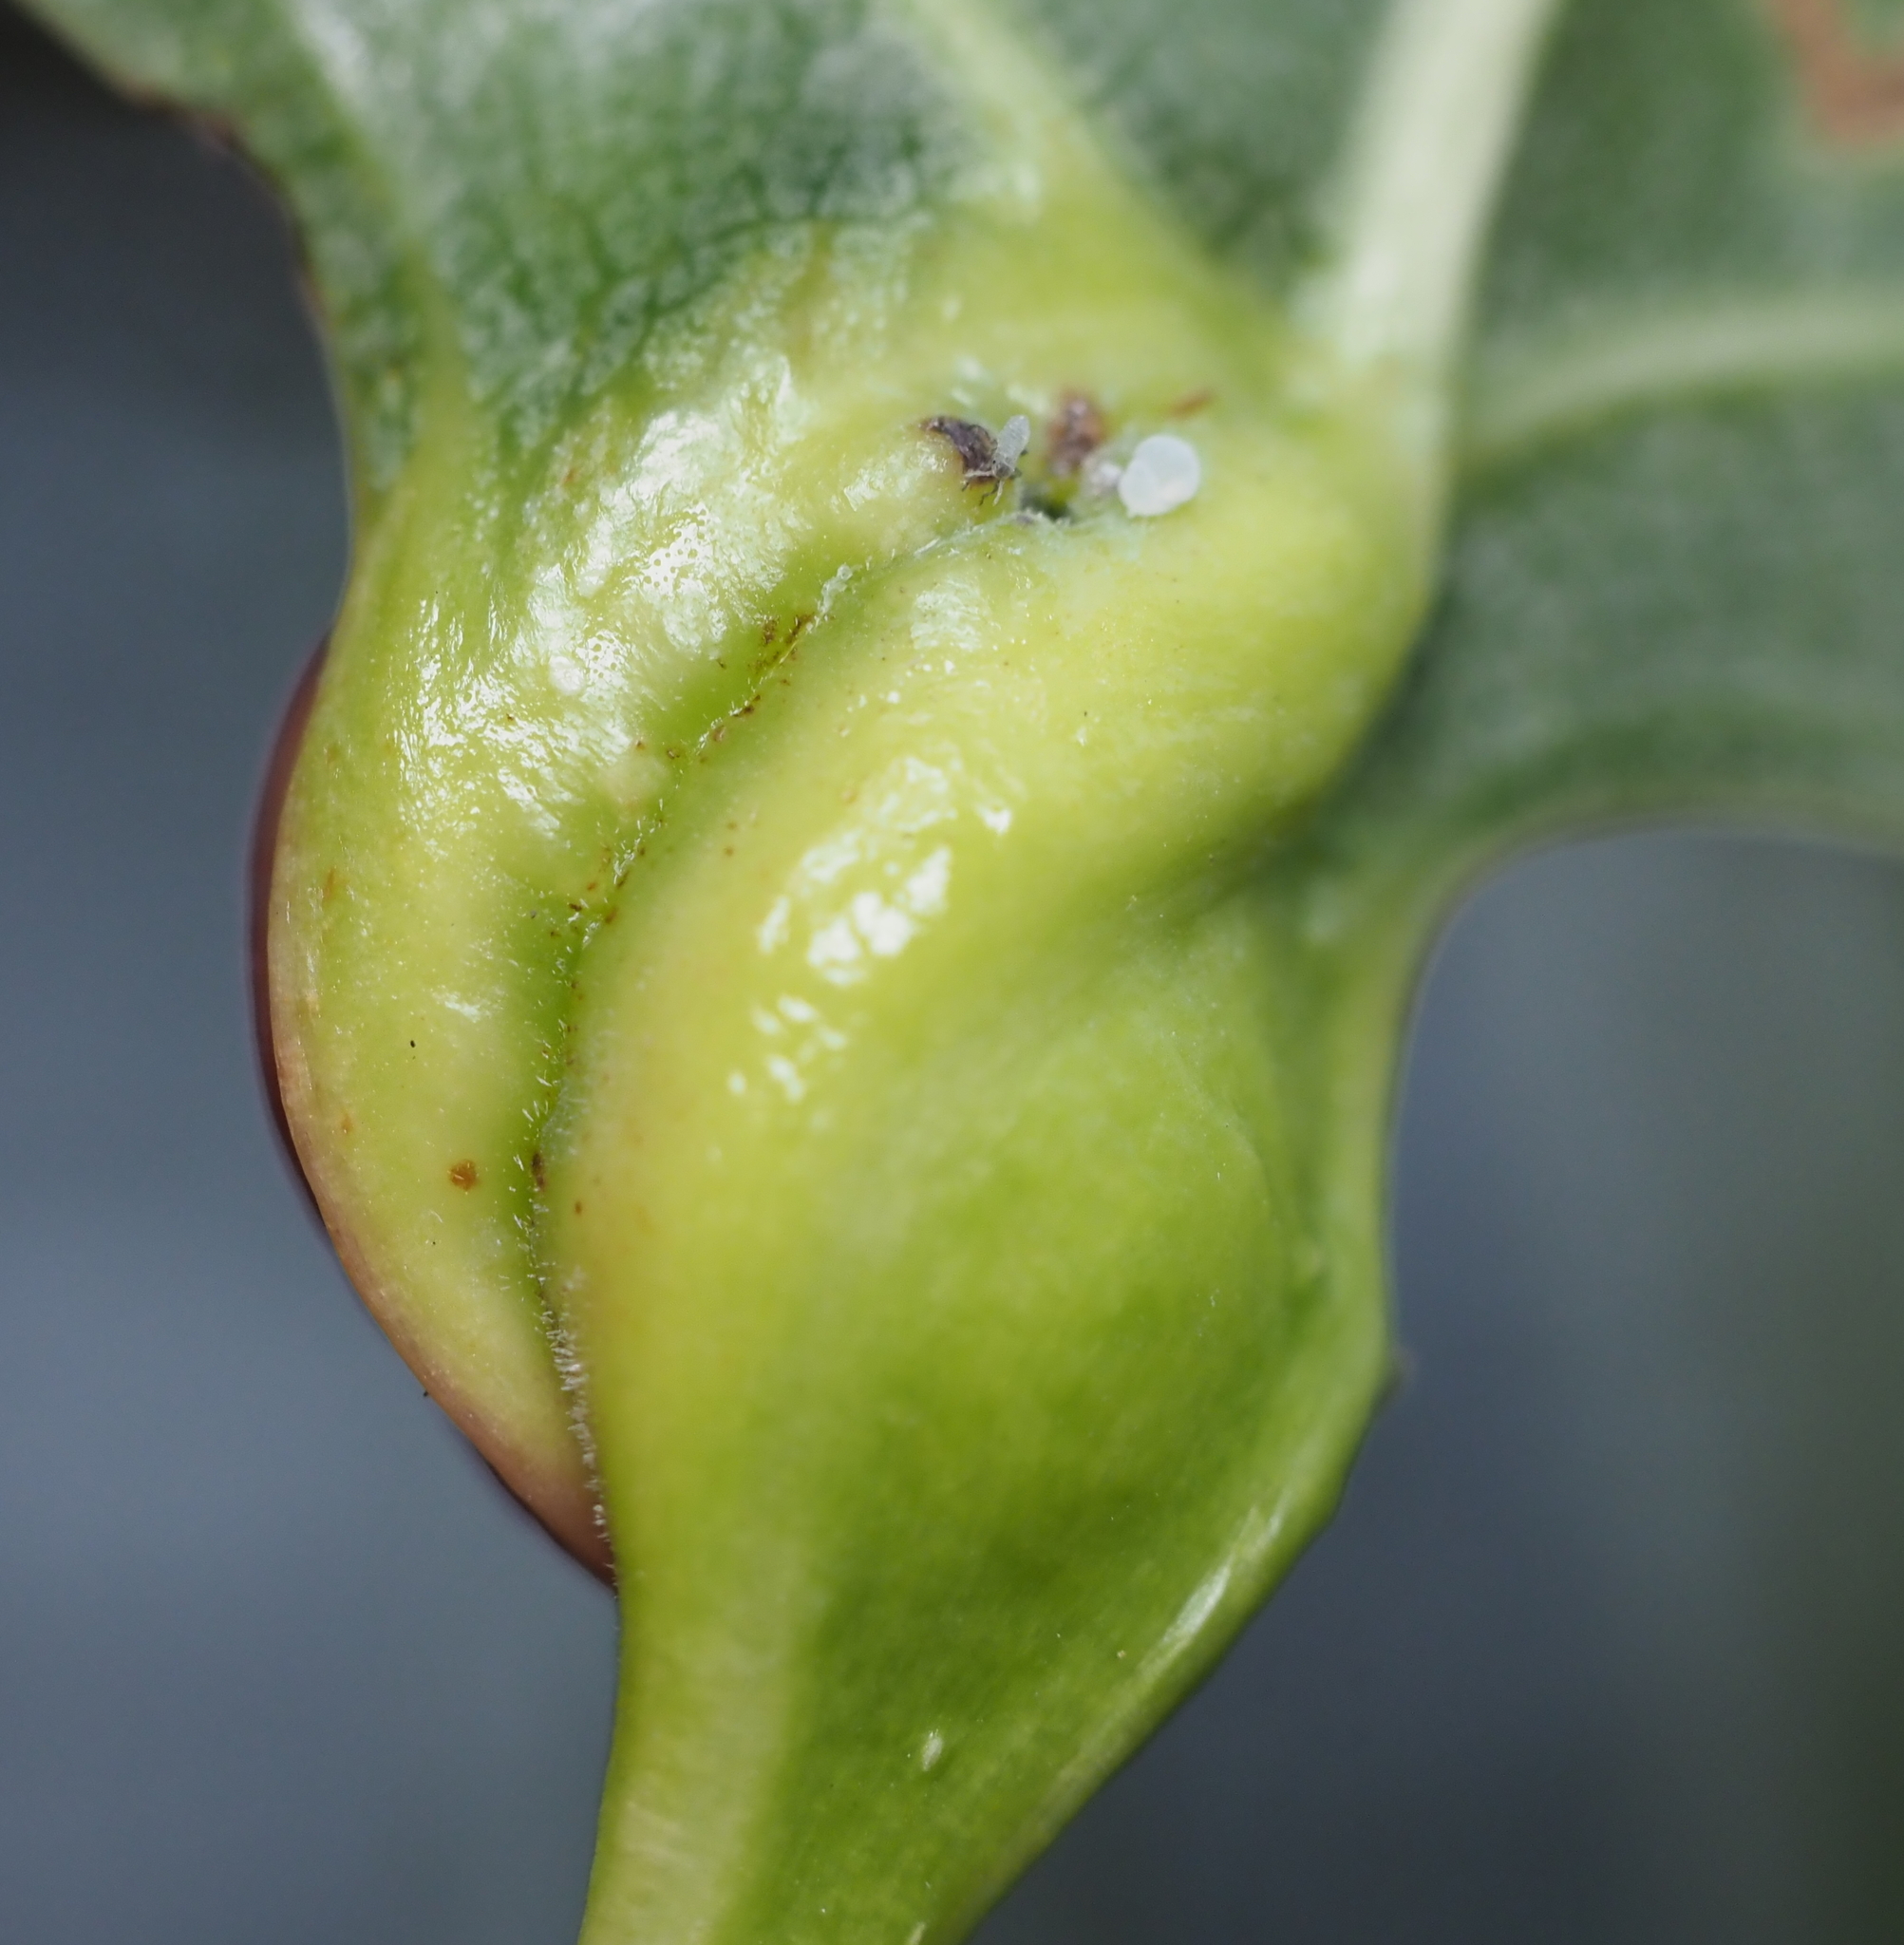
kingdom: Animalia
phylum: Arthropoda
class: Insecta
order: Hemiptera
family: Aphididae
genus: Pemphigus
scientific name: Pemphigus populicaulis
